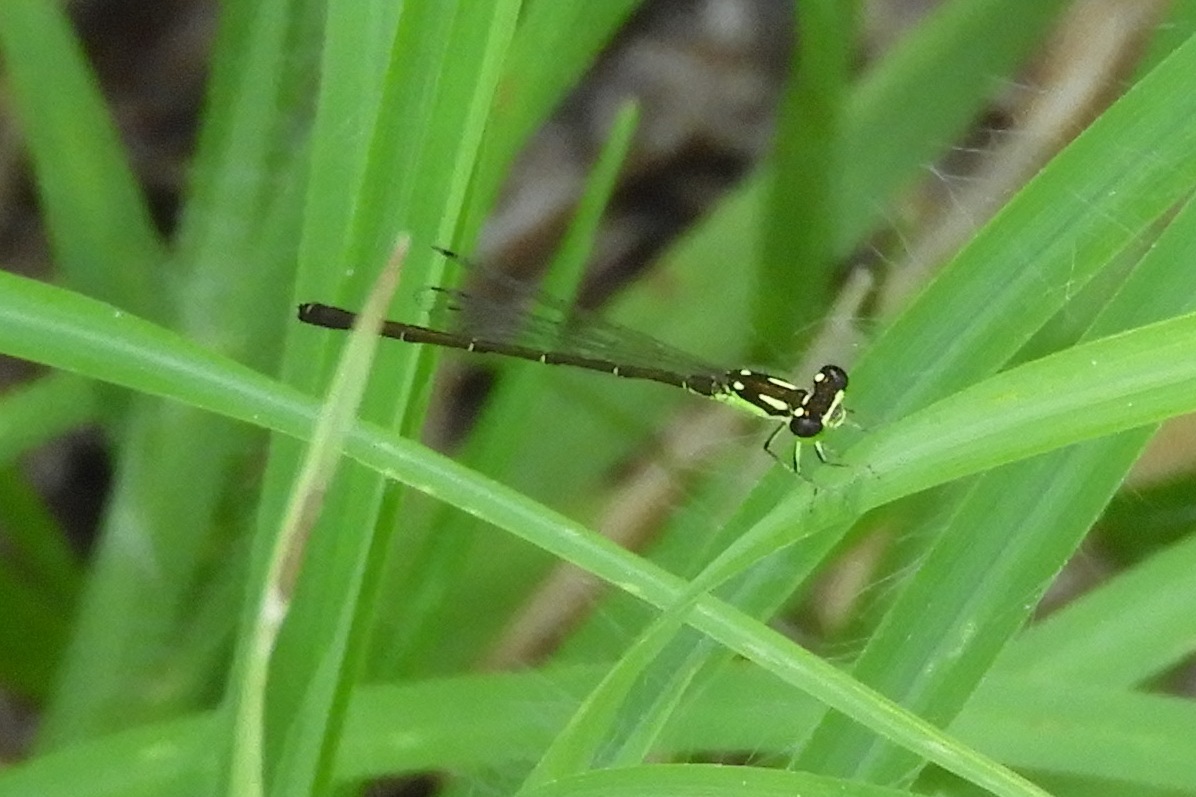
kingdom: Animalia
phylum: Arthropoda
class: Insecta
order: Odonata
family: Coenagrionidae
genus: Ischnura
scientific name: Ischnura posita
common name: Fragile forktail
